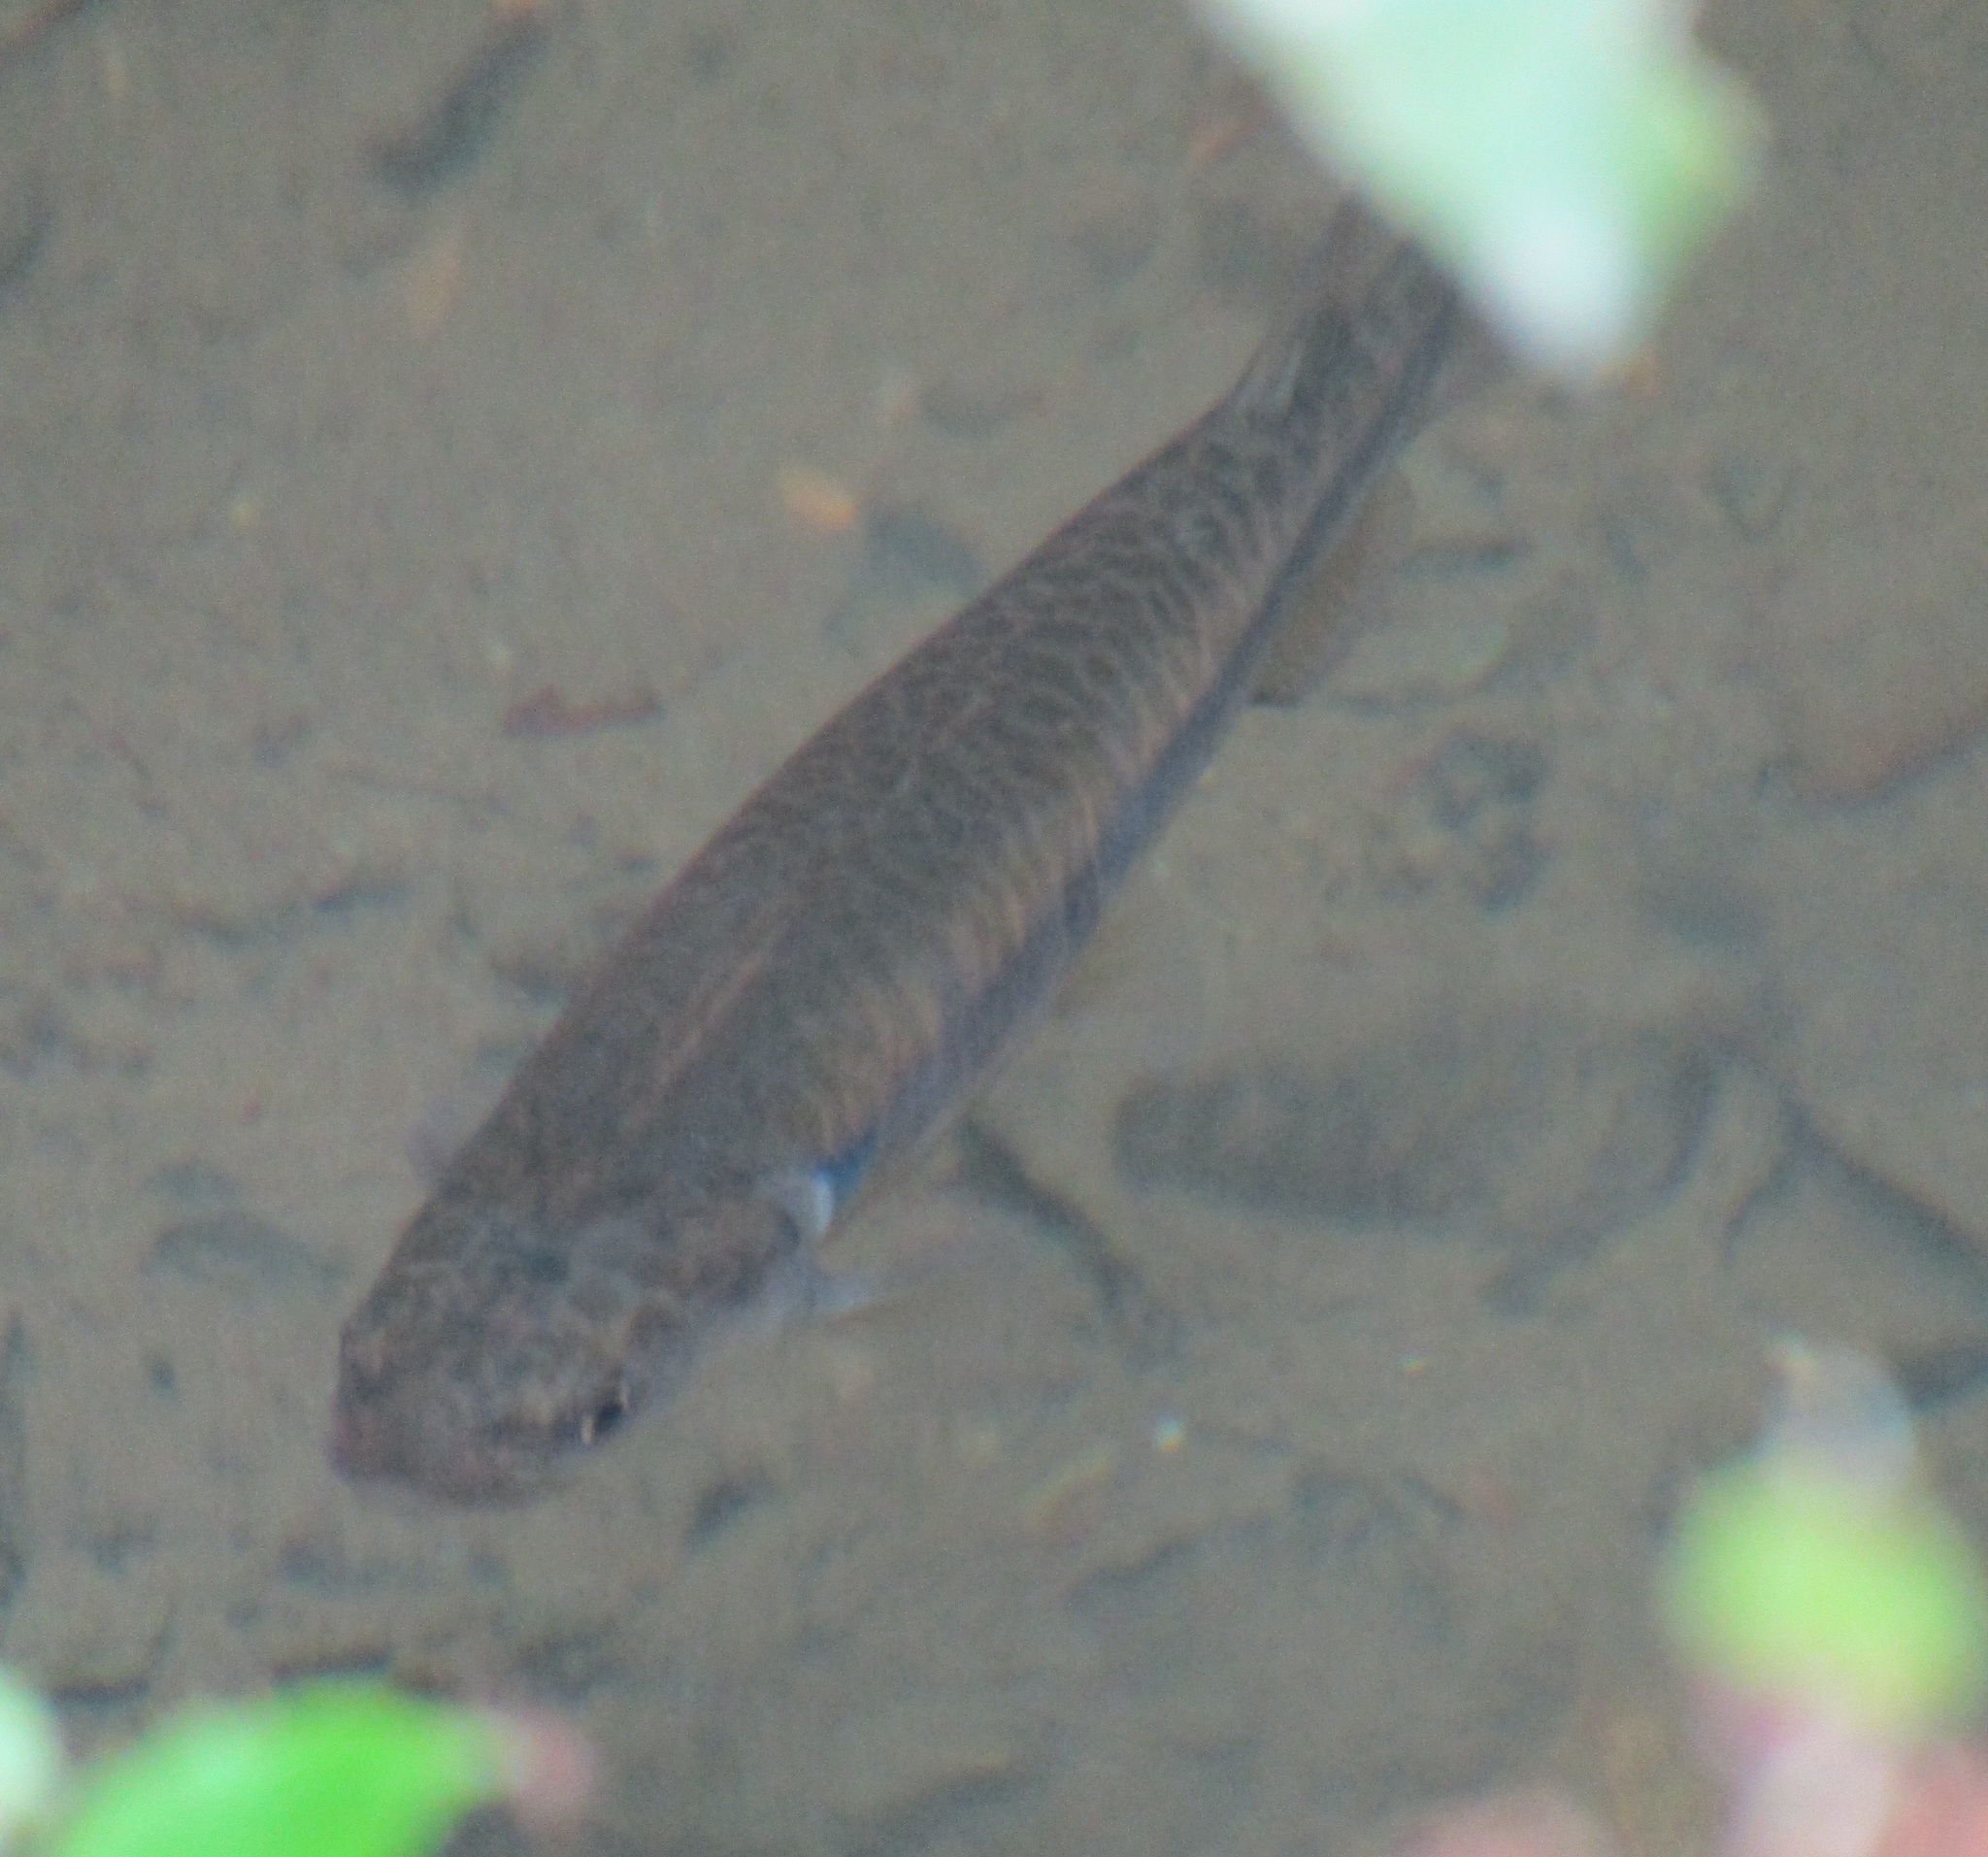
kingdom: Animalia
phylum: Chordata
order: Osmeriformes
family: Galaxiidae
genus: Galaxias
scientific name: Galaxias fasciatus
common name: Banded kokopu
